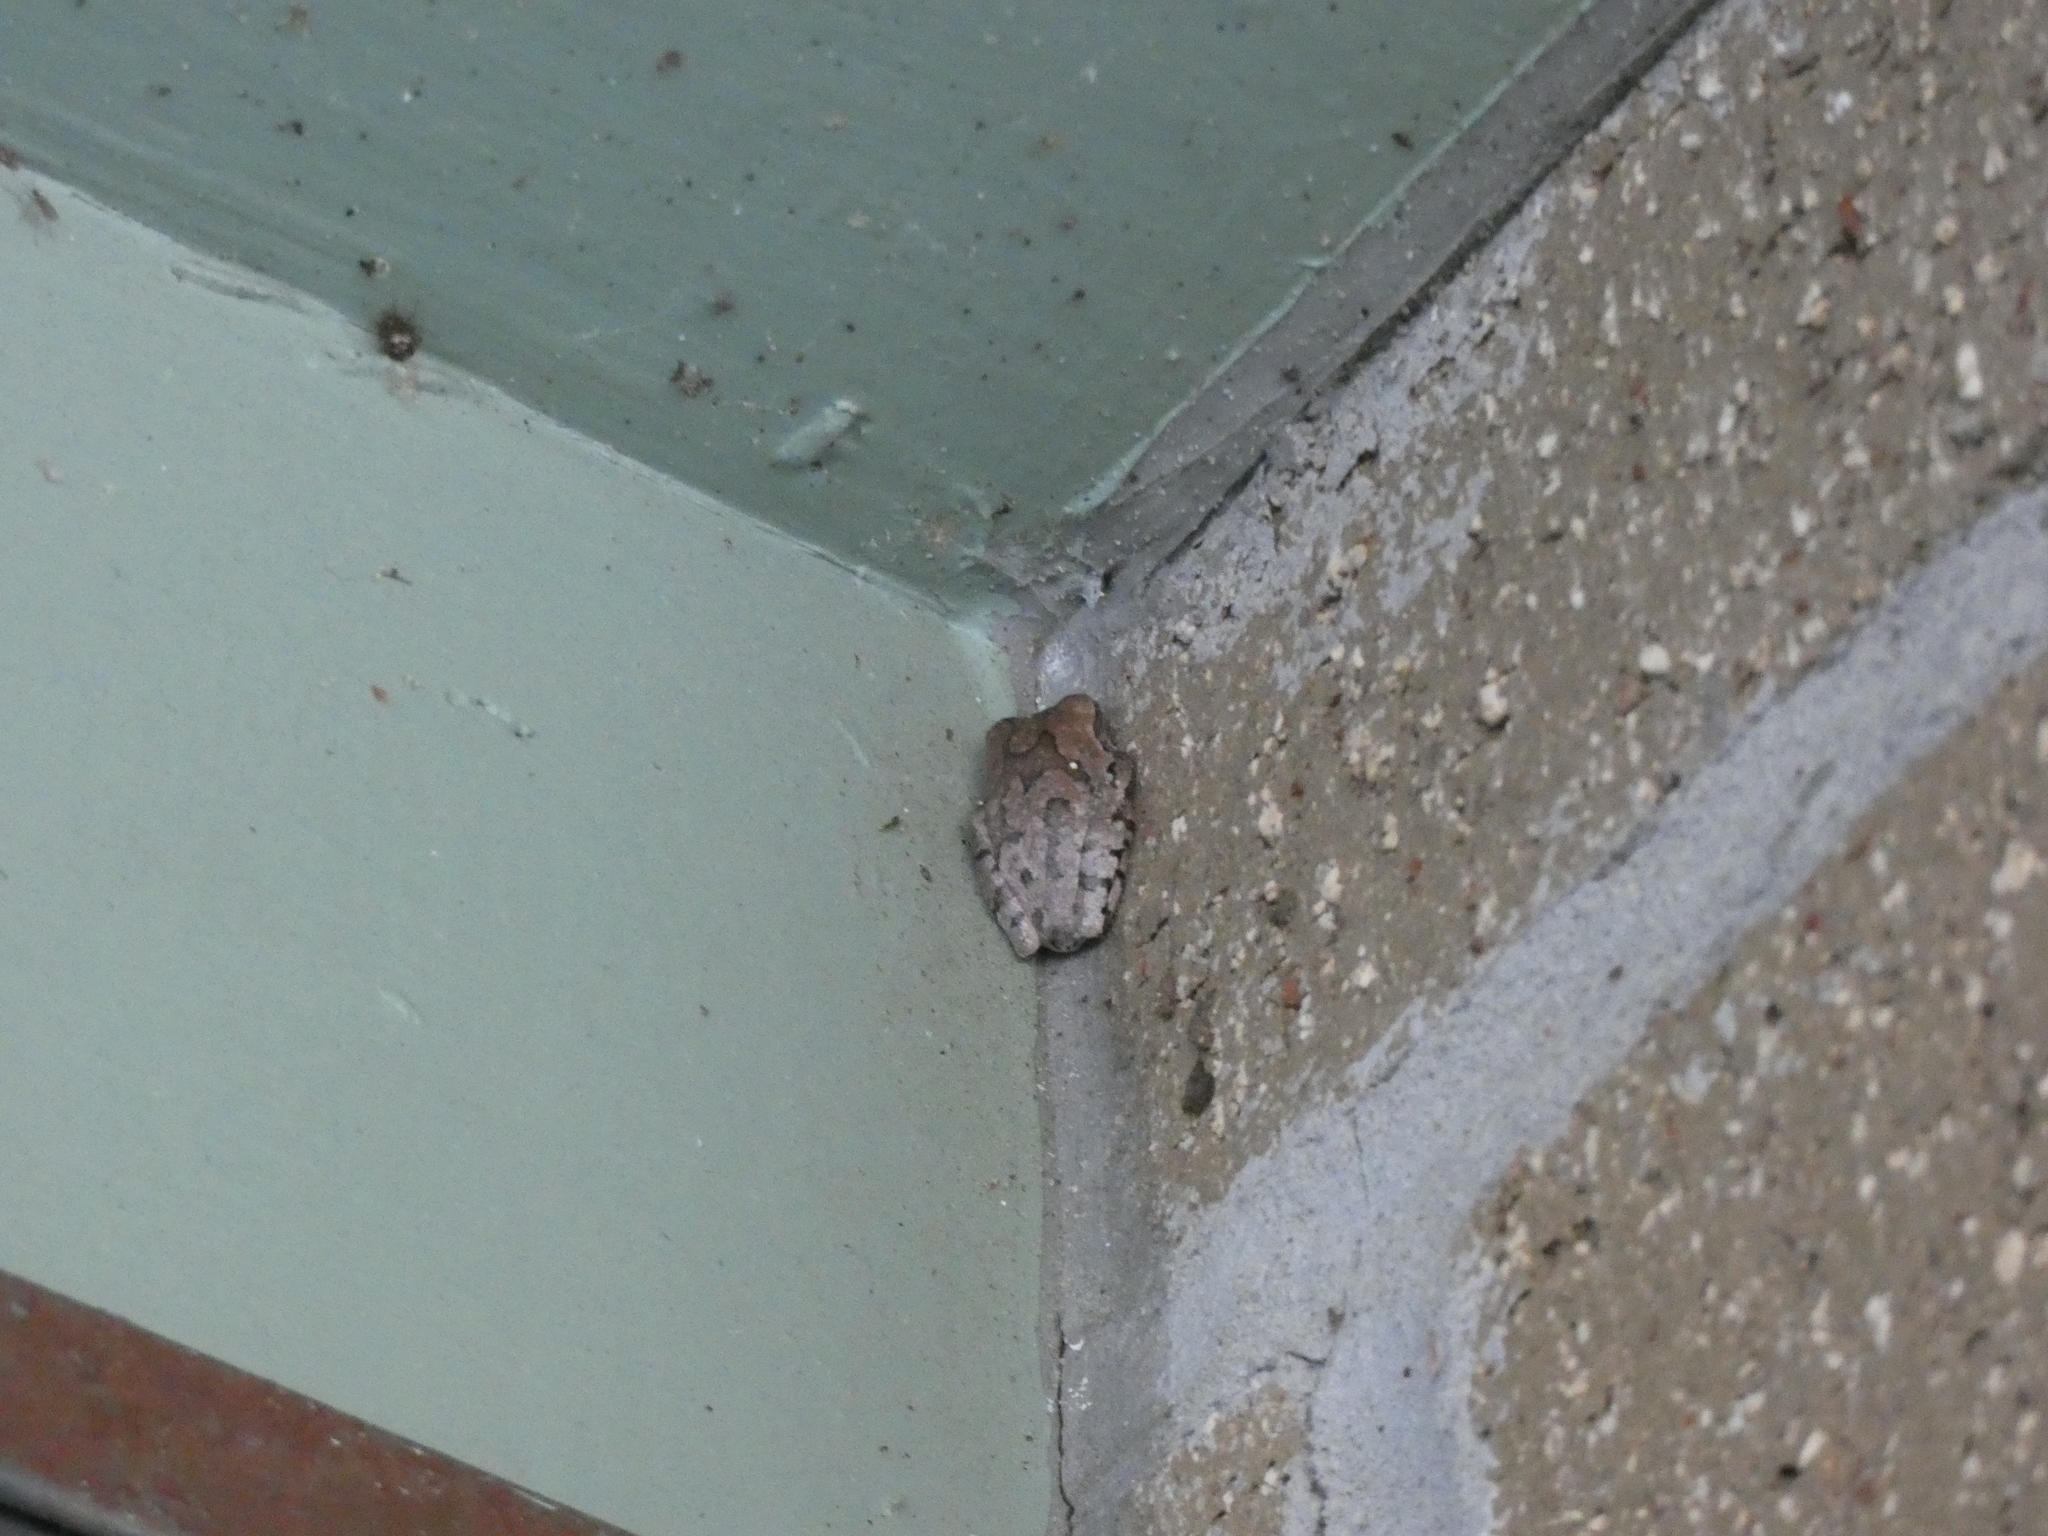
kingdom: Animalia
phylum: Chordata
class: Amphibia
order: Anura
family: Hylidae
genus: Hyla
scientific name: Hyla femoralis
